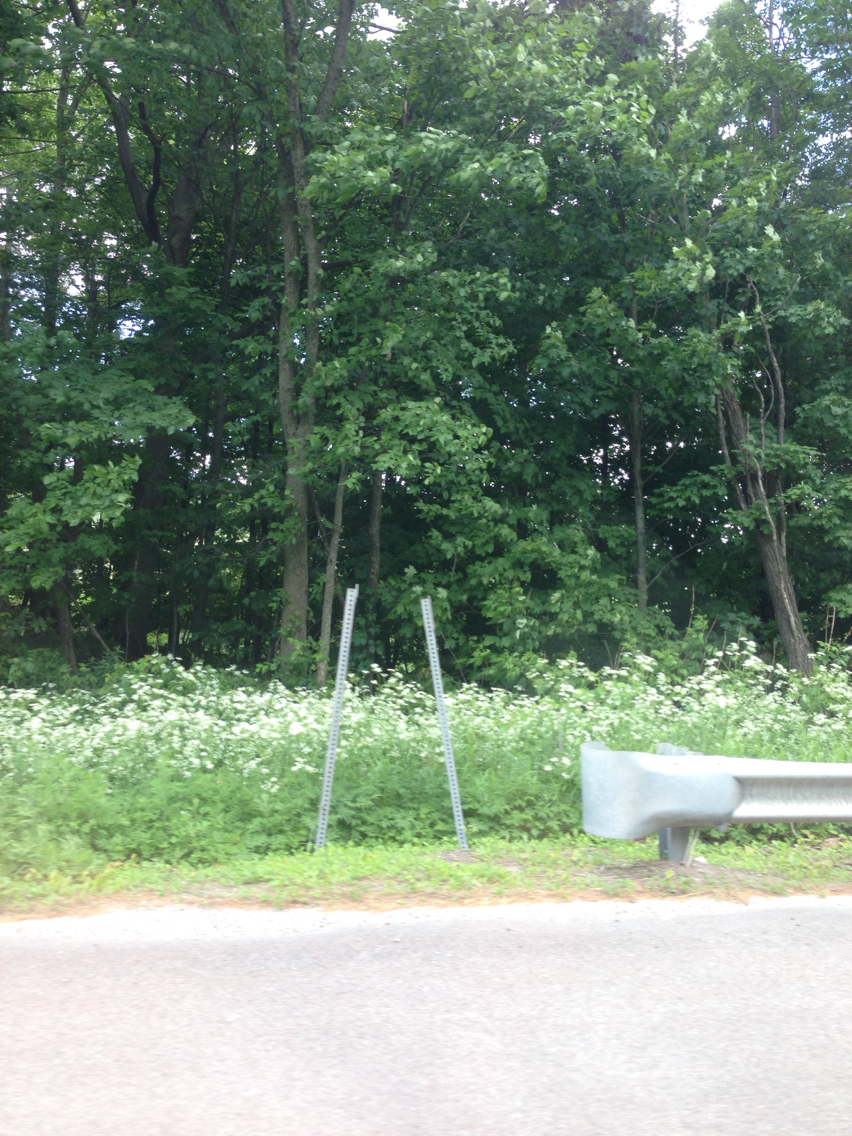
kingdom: Plantae
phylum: Tracheophyta
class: Magnoliopsida
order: Sapindales
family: Sapindaceae
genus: Acer
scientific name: Acer saccharum
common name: Sugar maple
